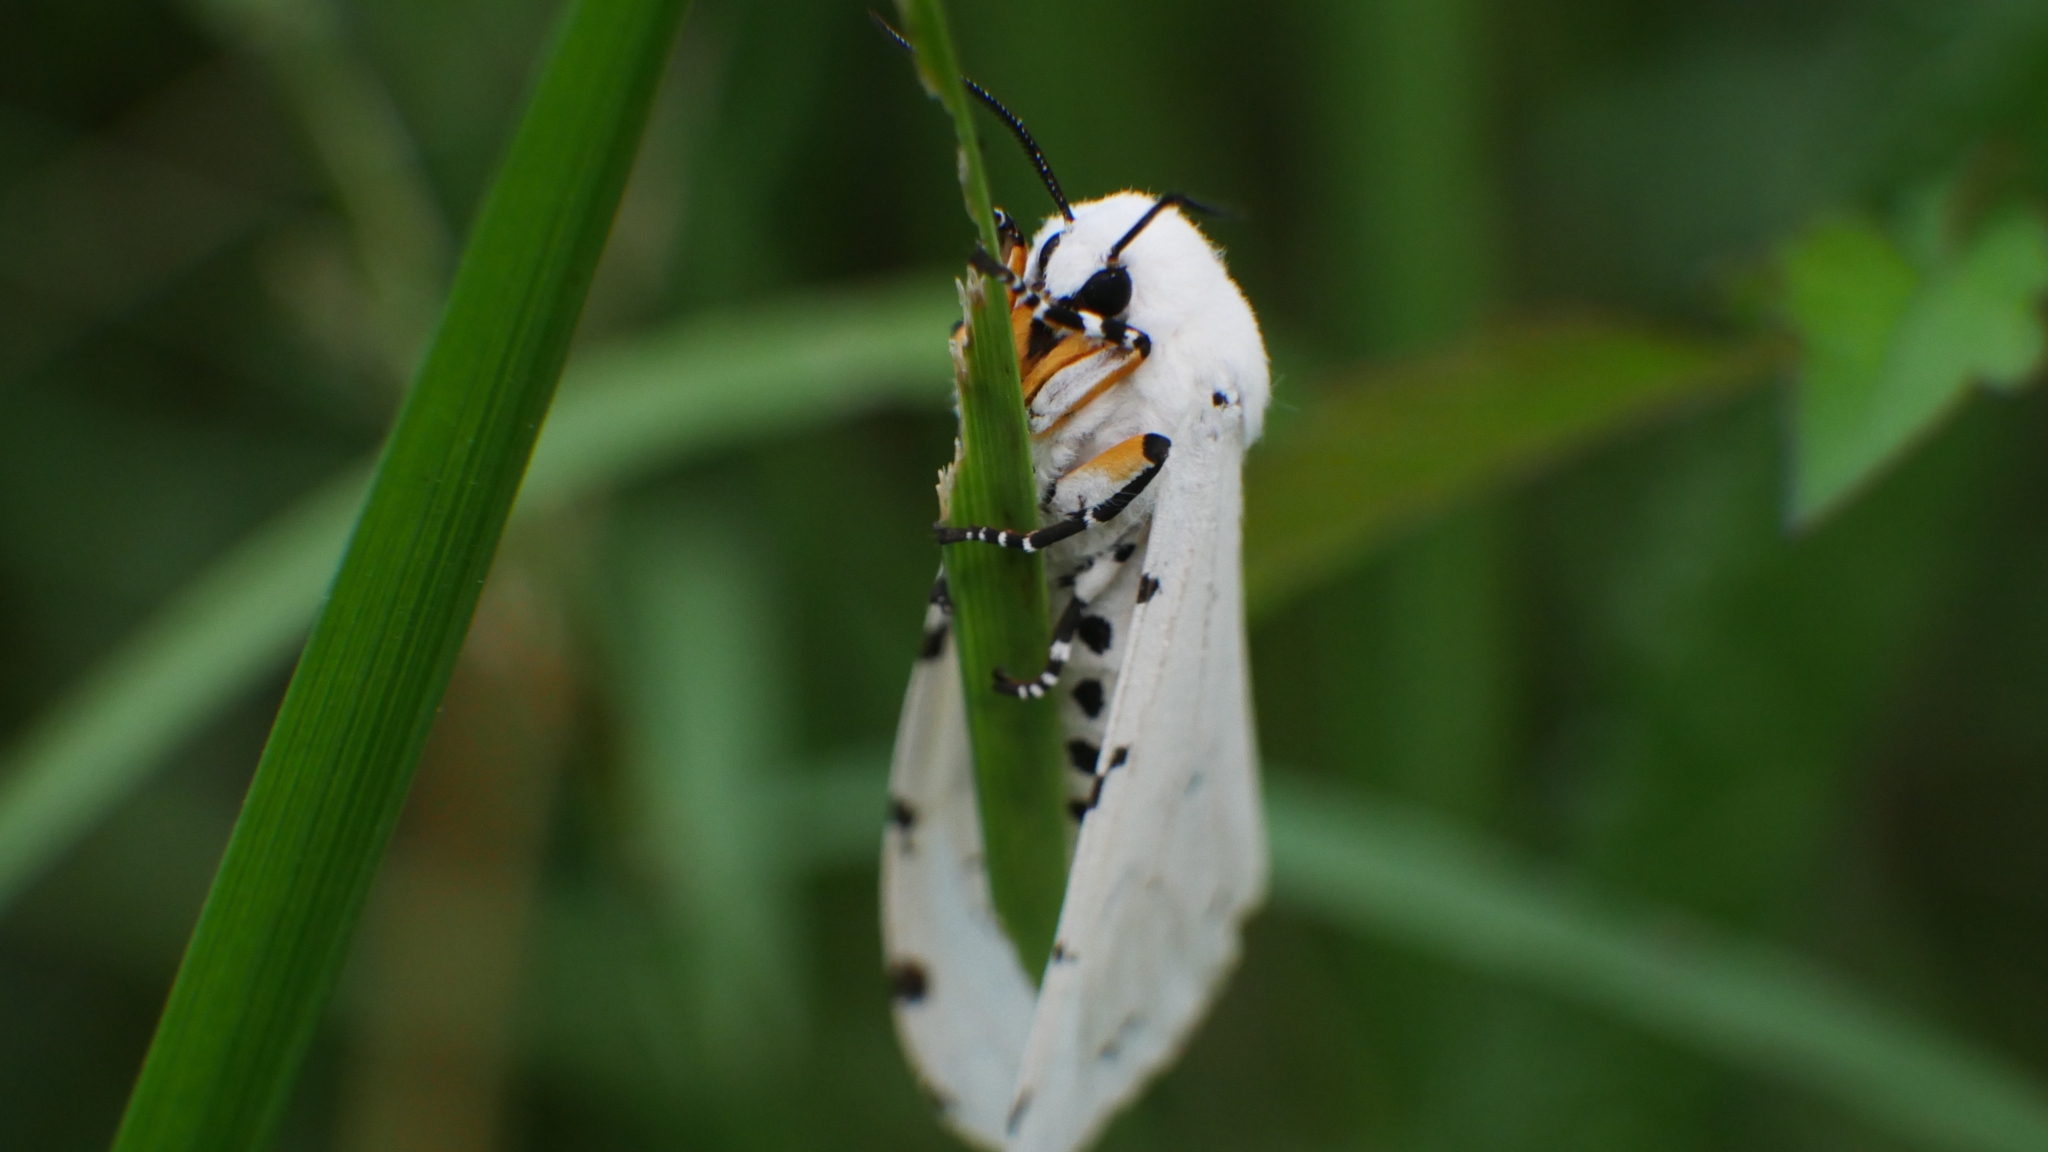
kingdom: Animalia
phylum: Arthropoda
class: Insecta
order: Lepidoptera
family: Erebidae
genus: Estigmene
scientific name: Estigmene acrea
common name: Salt marsh moth
